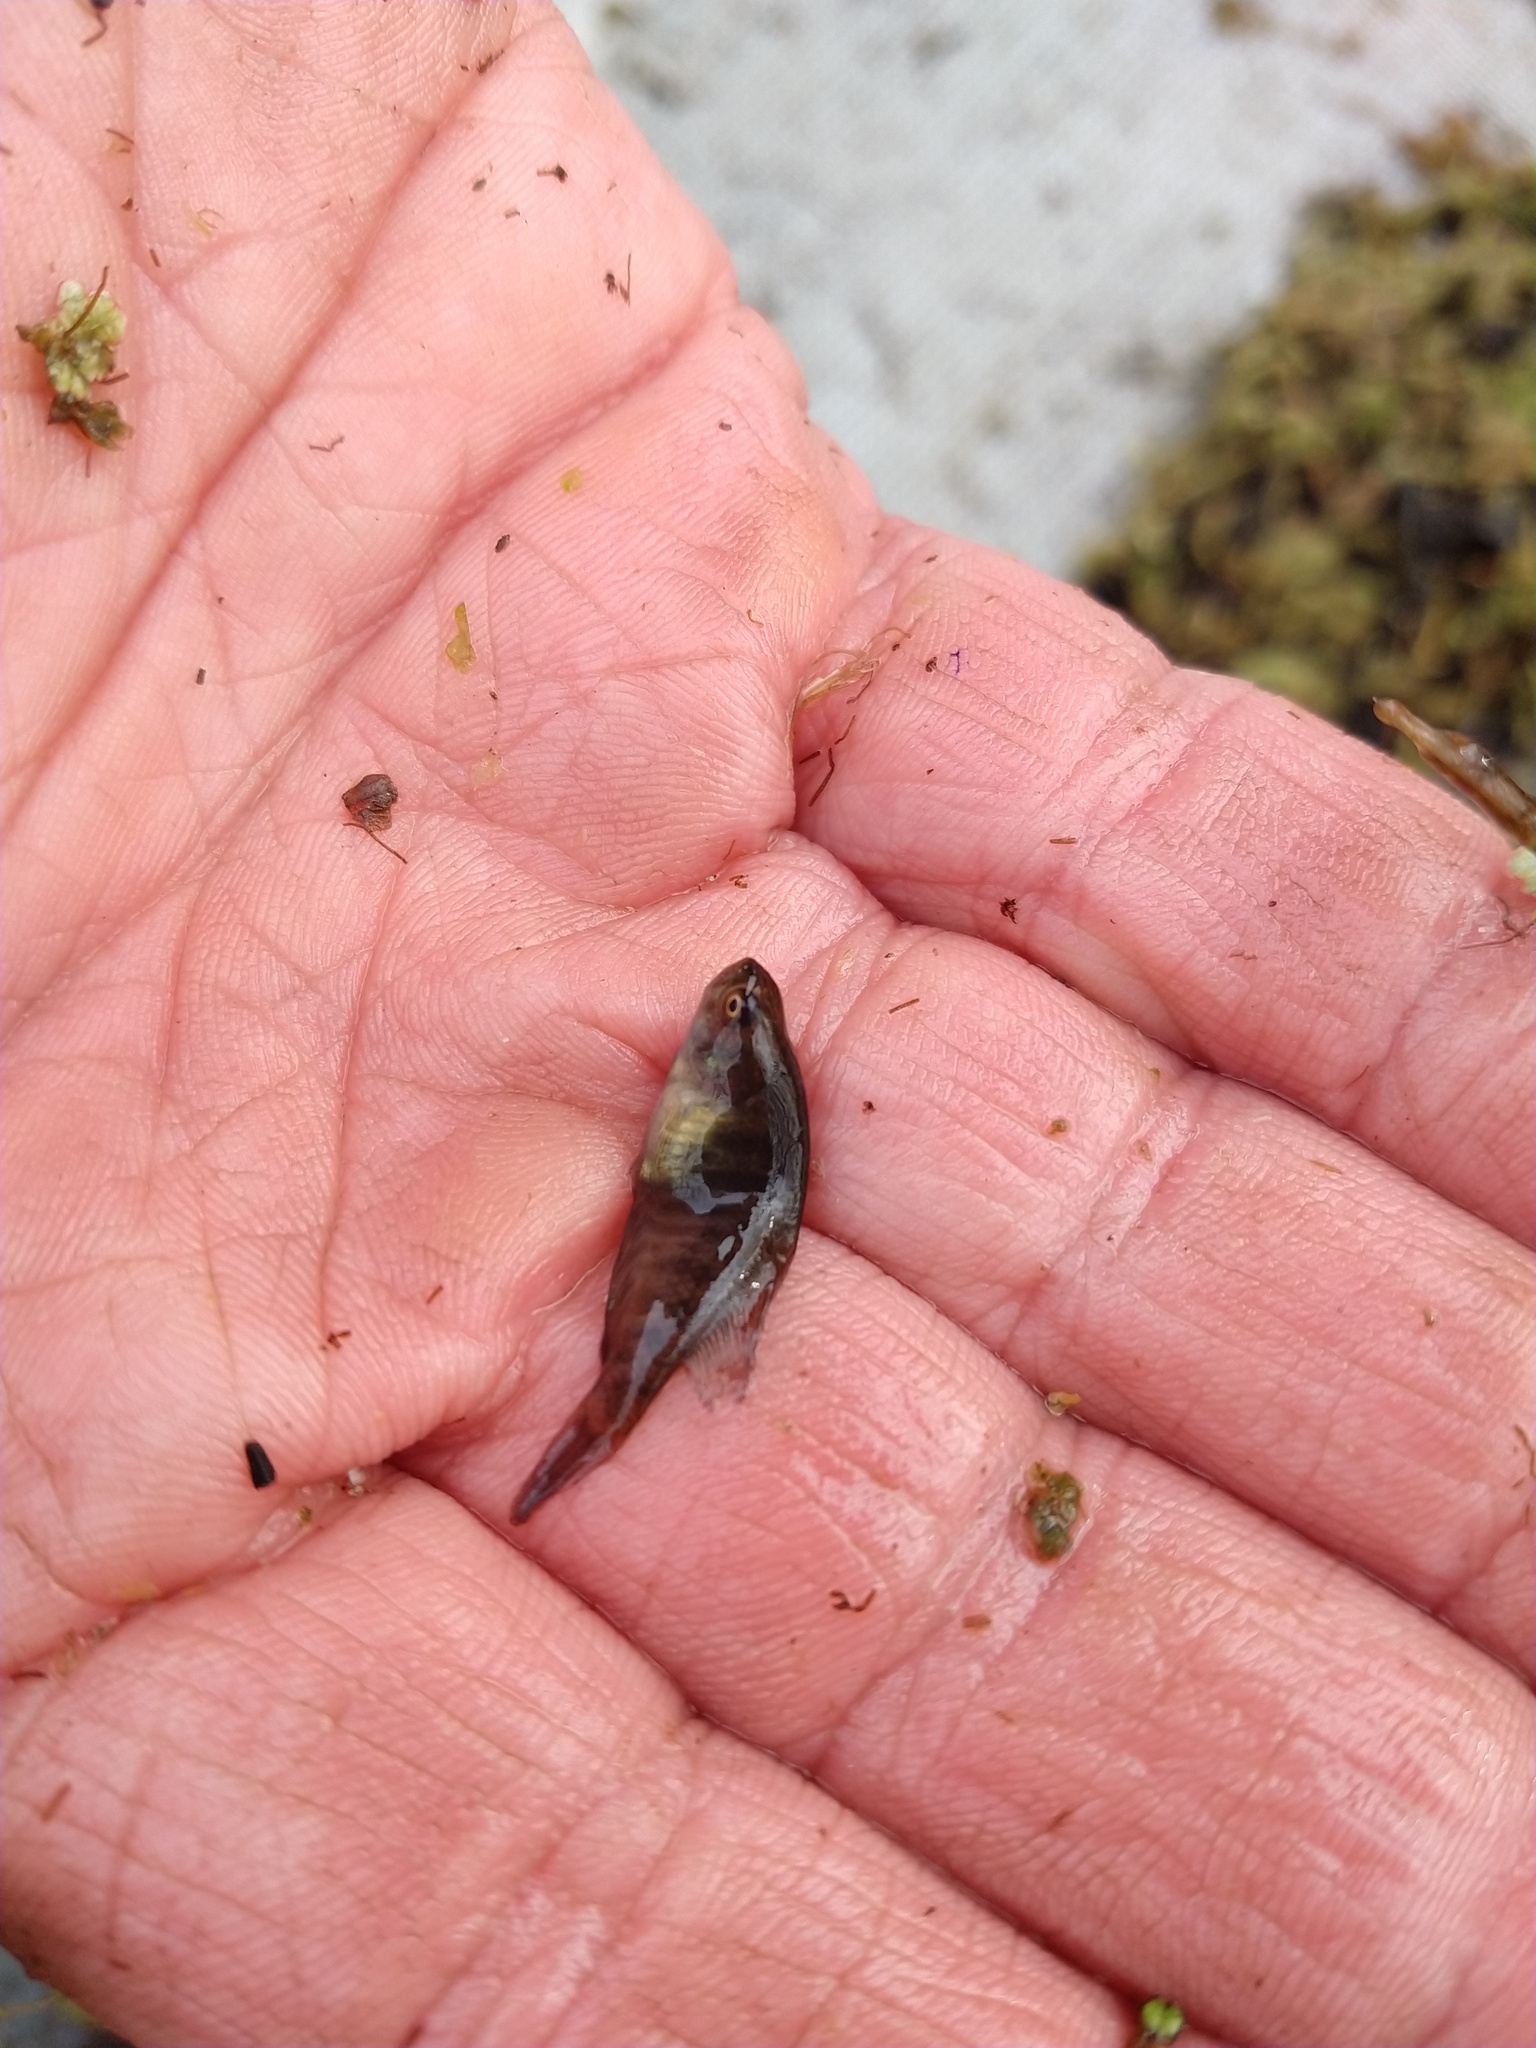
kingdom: Animalia
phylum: Chordata
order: Cyprinodontiformes
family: Rivulidae
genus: Austrolebias
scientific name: Austrolebias elongatus
